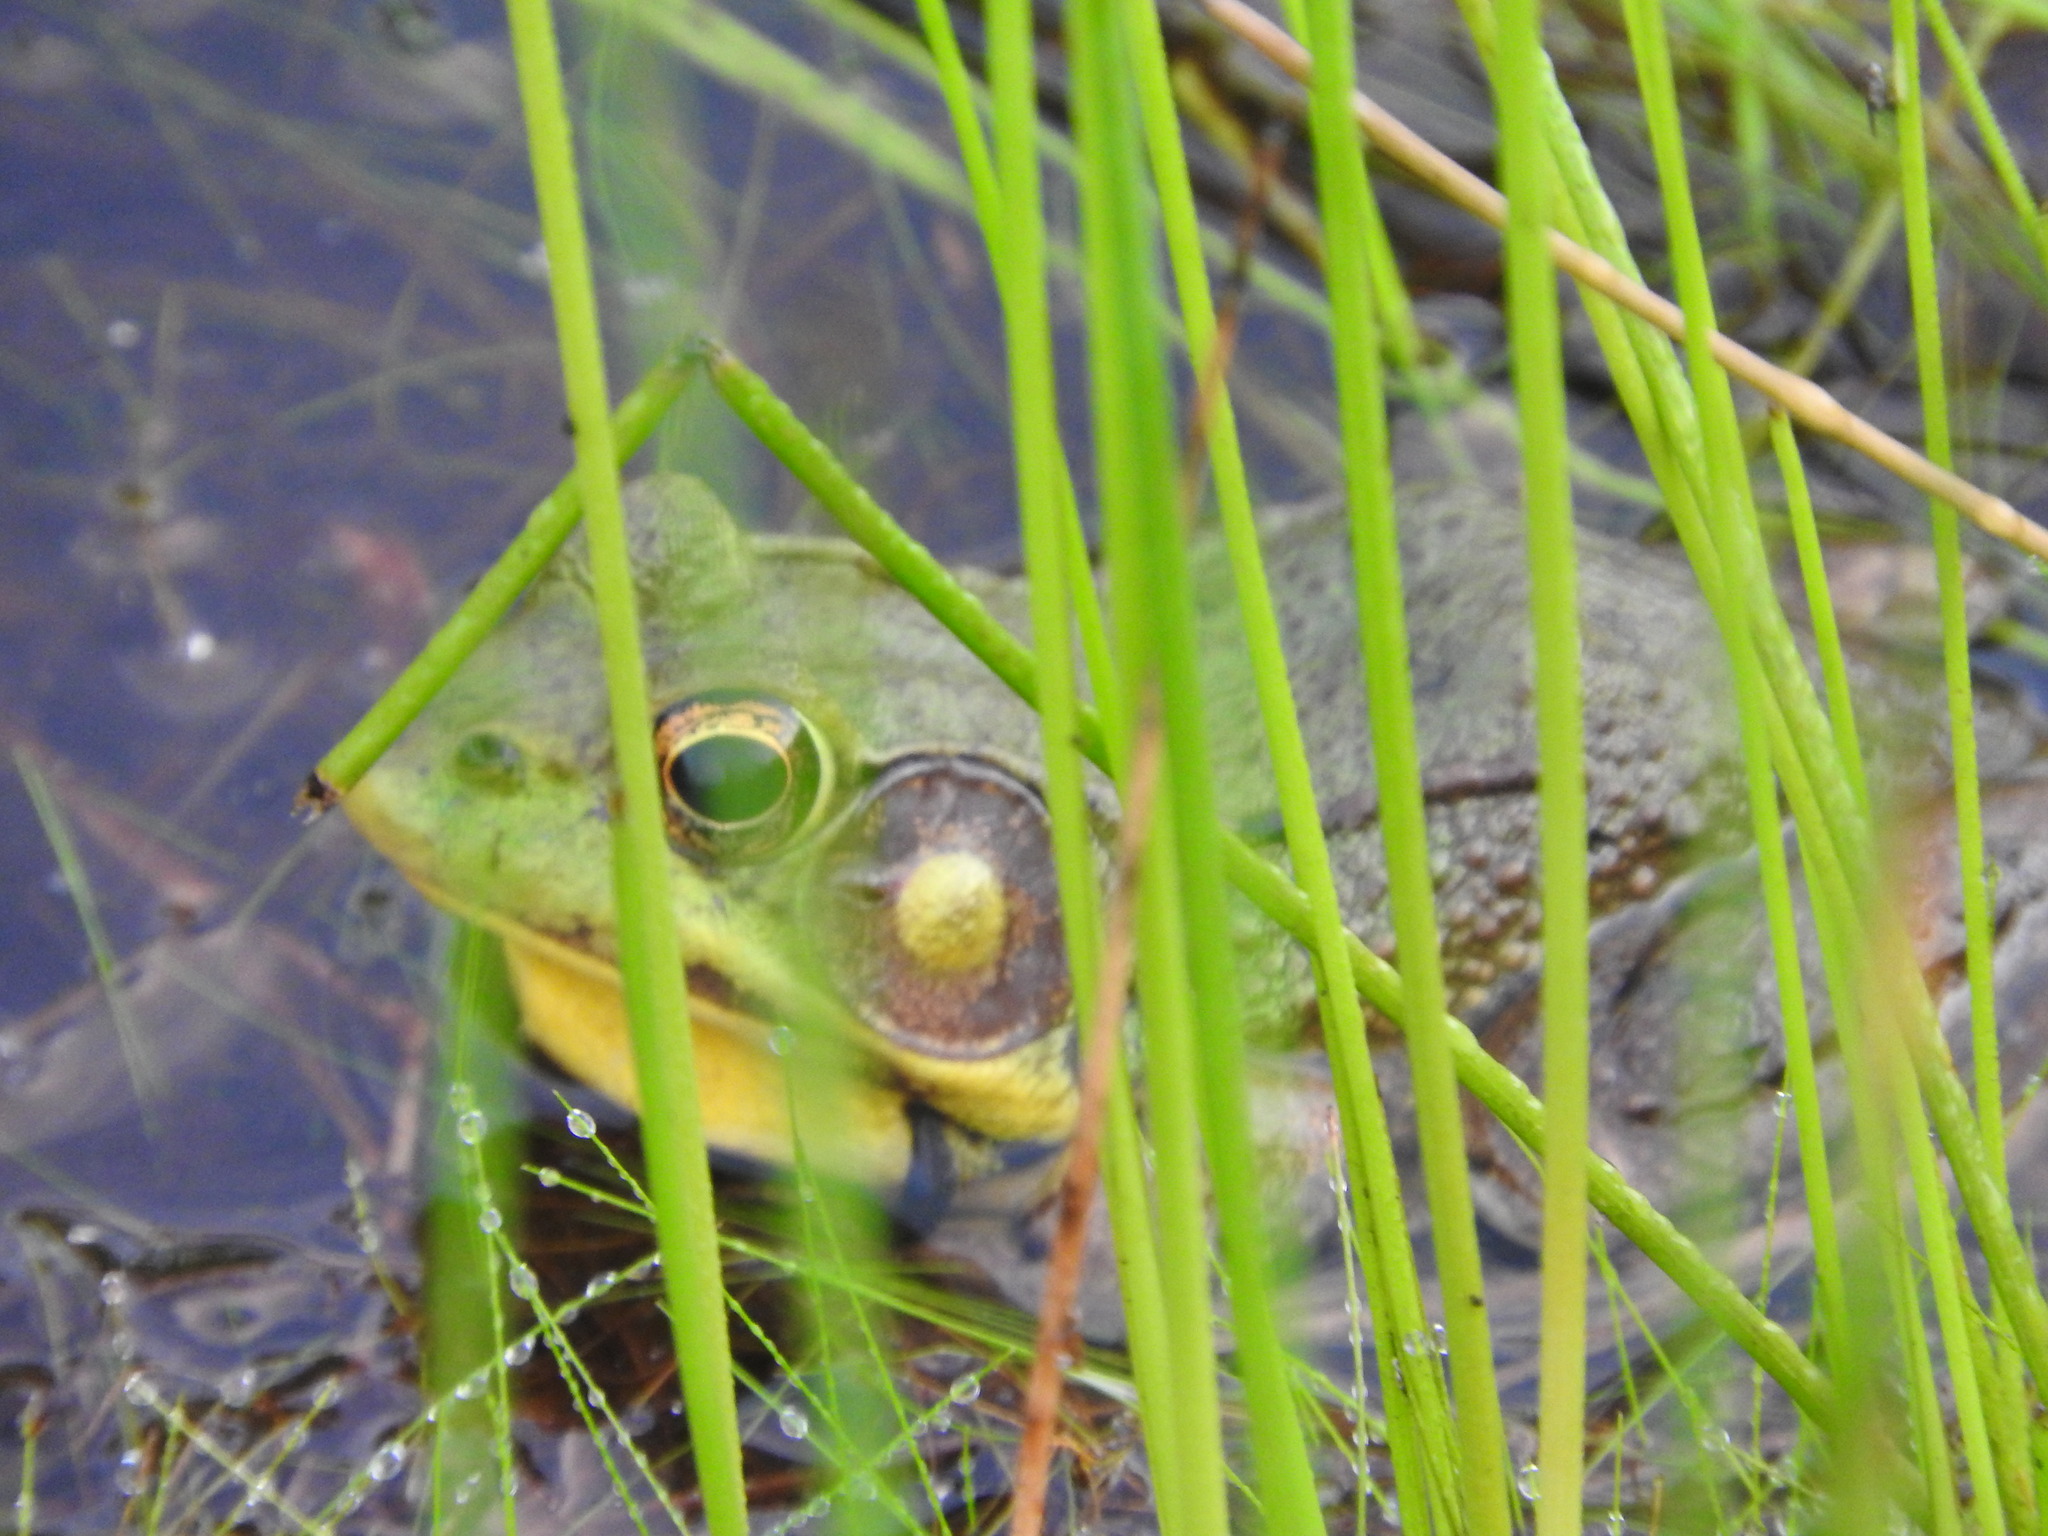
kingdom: Animalia
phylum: Chordata
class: Amphibia
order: Anura
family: Ranidae
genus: Lithobates
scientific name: Lithobates clamitans
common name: Green frog
